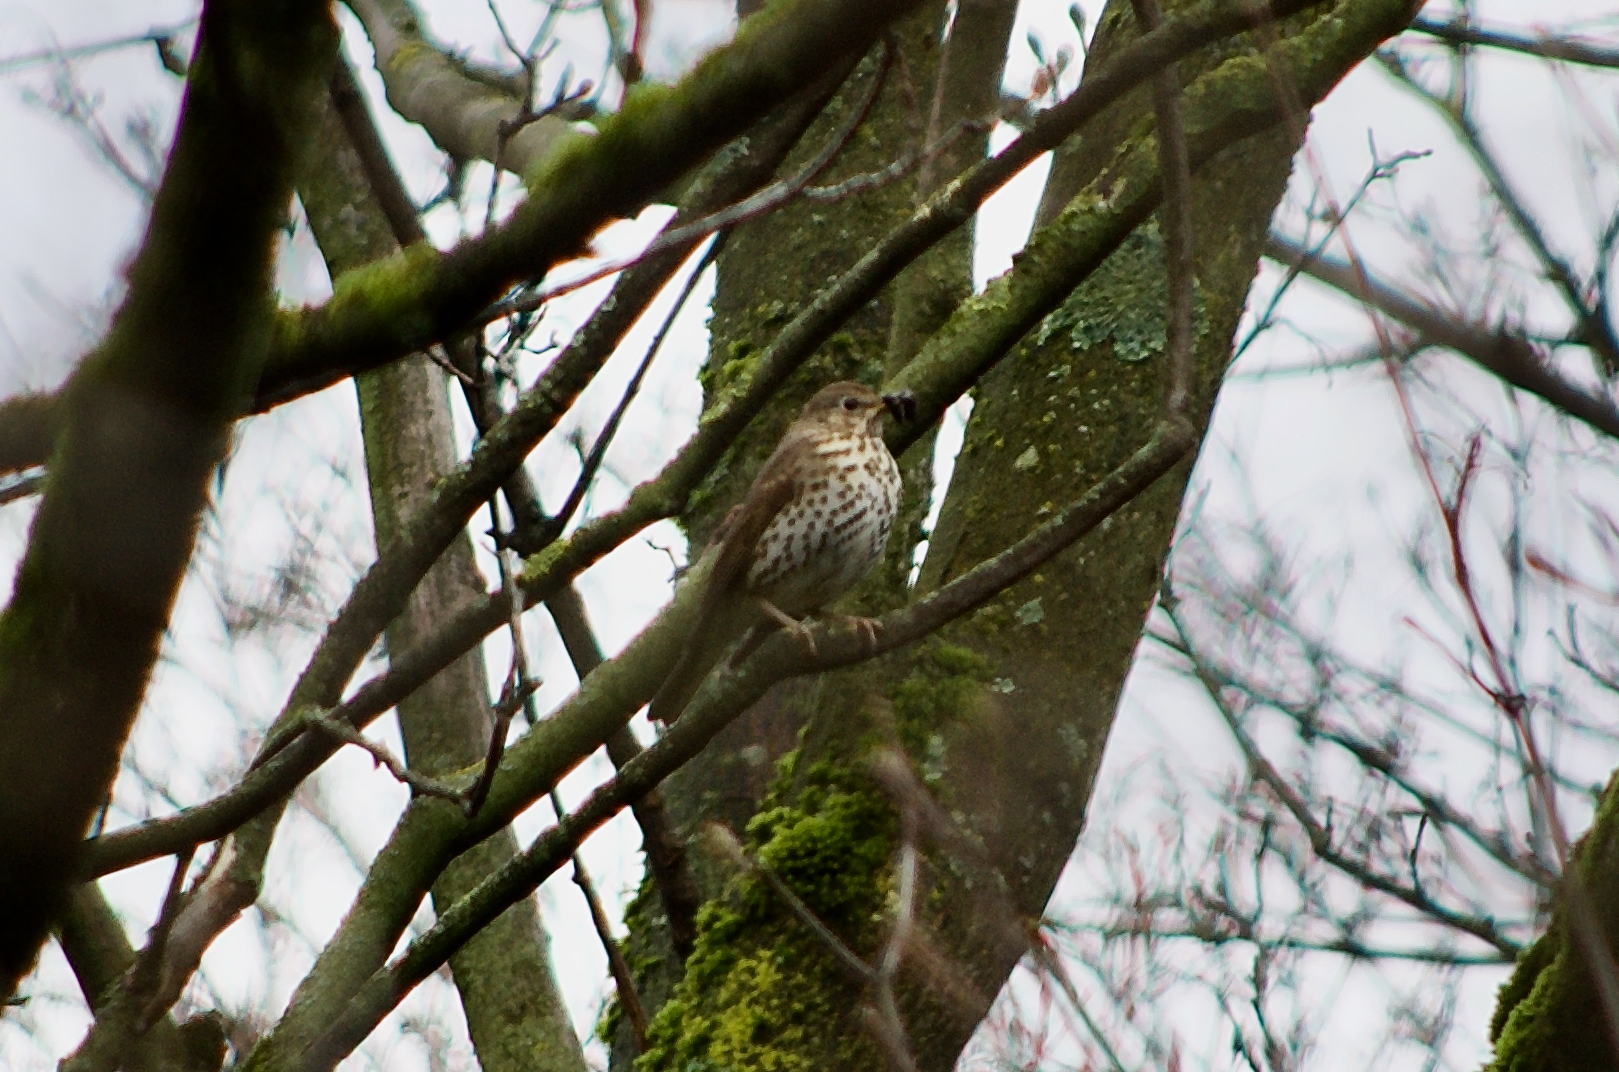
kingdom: Animalia
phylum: Chordata
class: Aves
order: Passeriformes
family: Turdidae
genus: Turdus
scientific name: Turdus philomelos
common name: Song thrush
